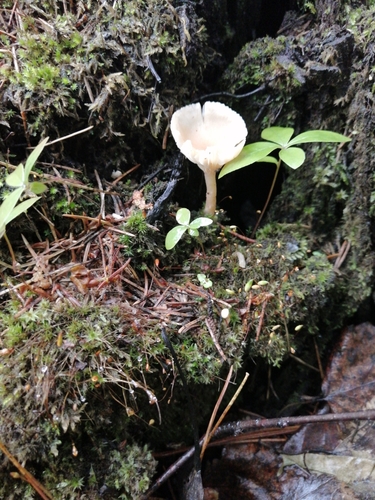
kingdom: Fungi
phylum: Basidiomycota
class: Agaricomycetes
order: Agaricales
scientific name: Agaricales
